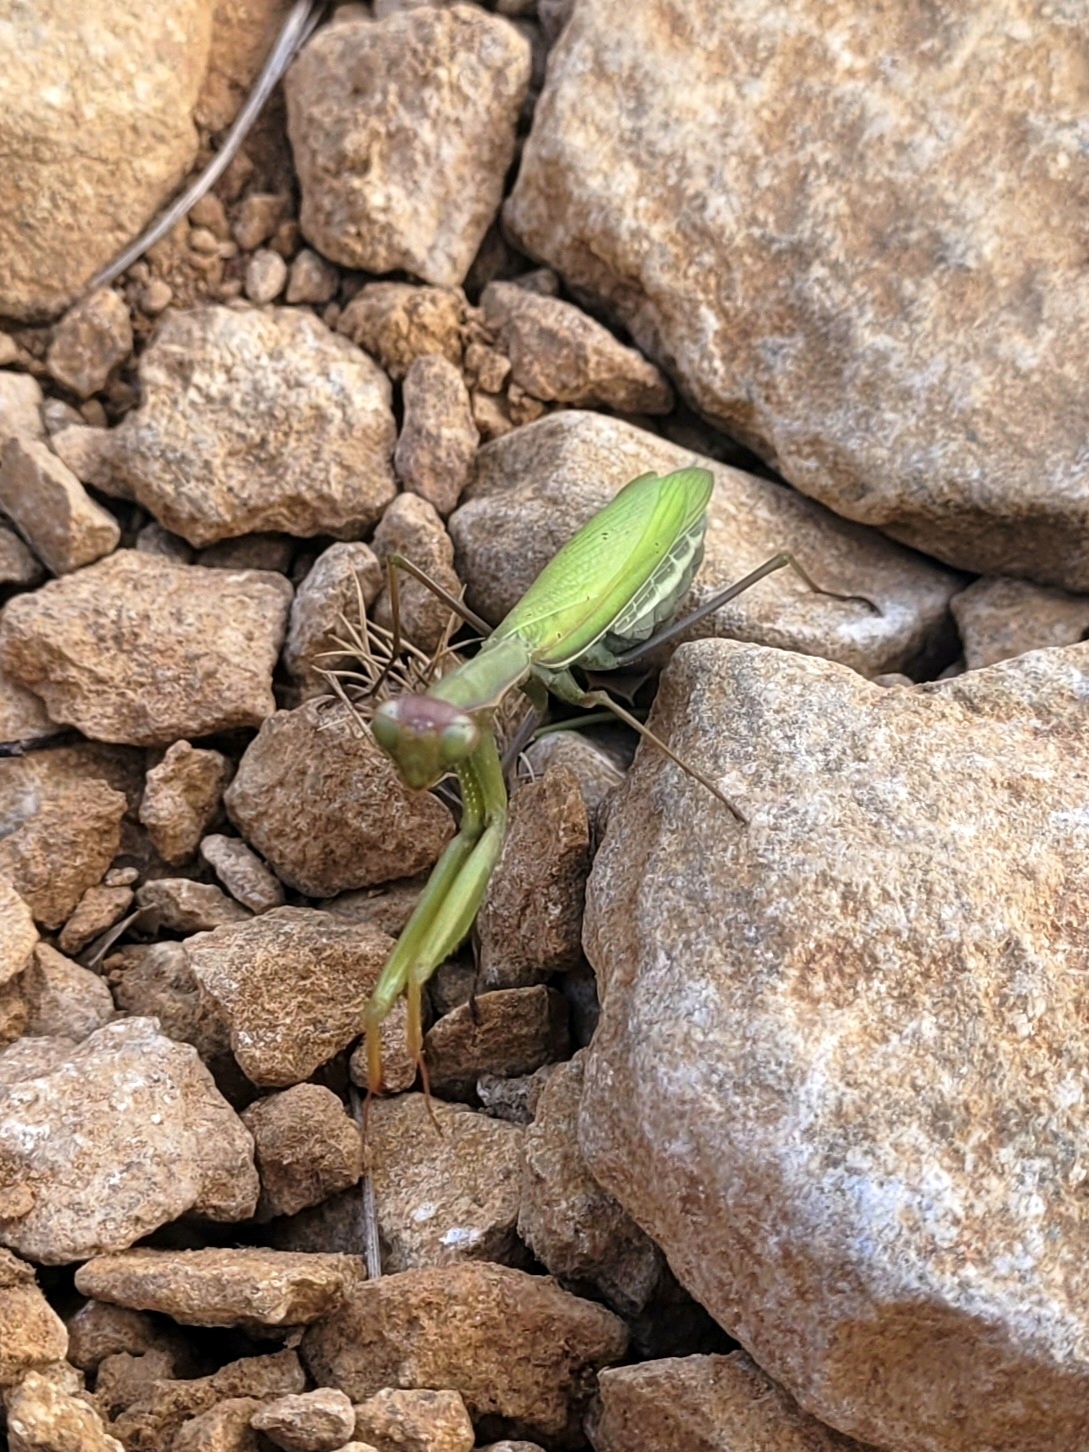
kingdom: Animalia
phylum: Arthropoda
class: Insecta
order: Mantodea
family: Mantidae
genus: Mantis
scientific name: Mantis religiosa
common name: Praying mantis
